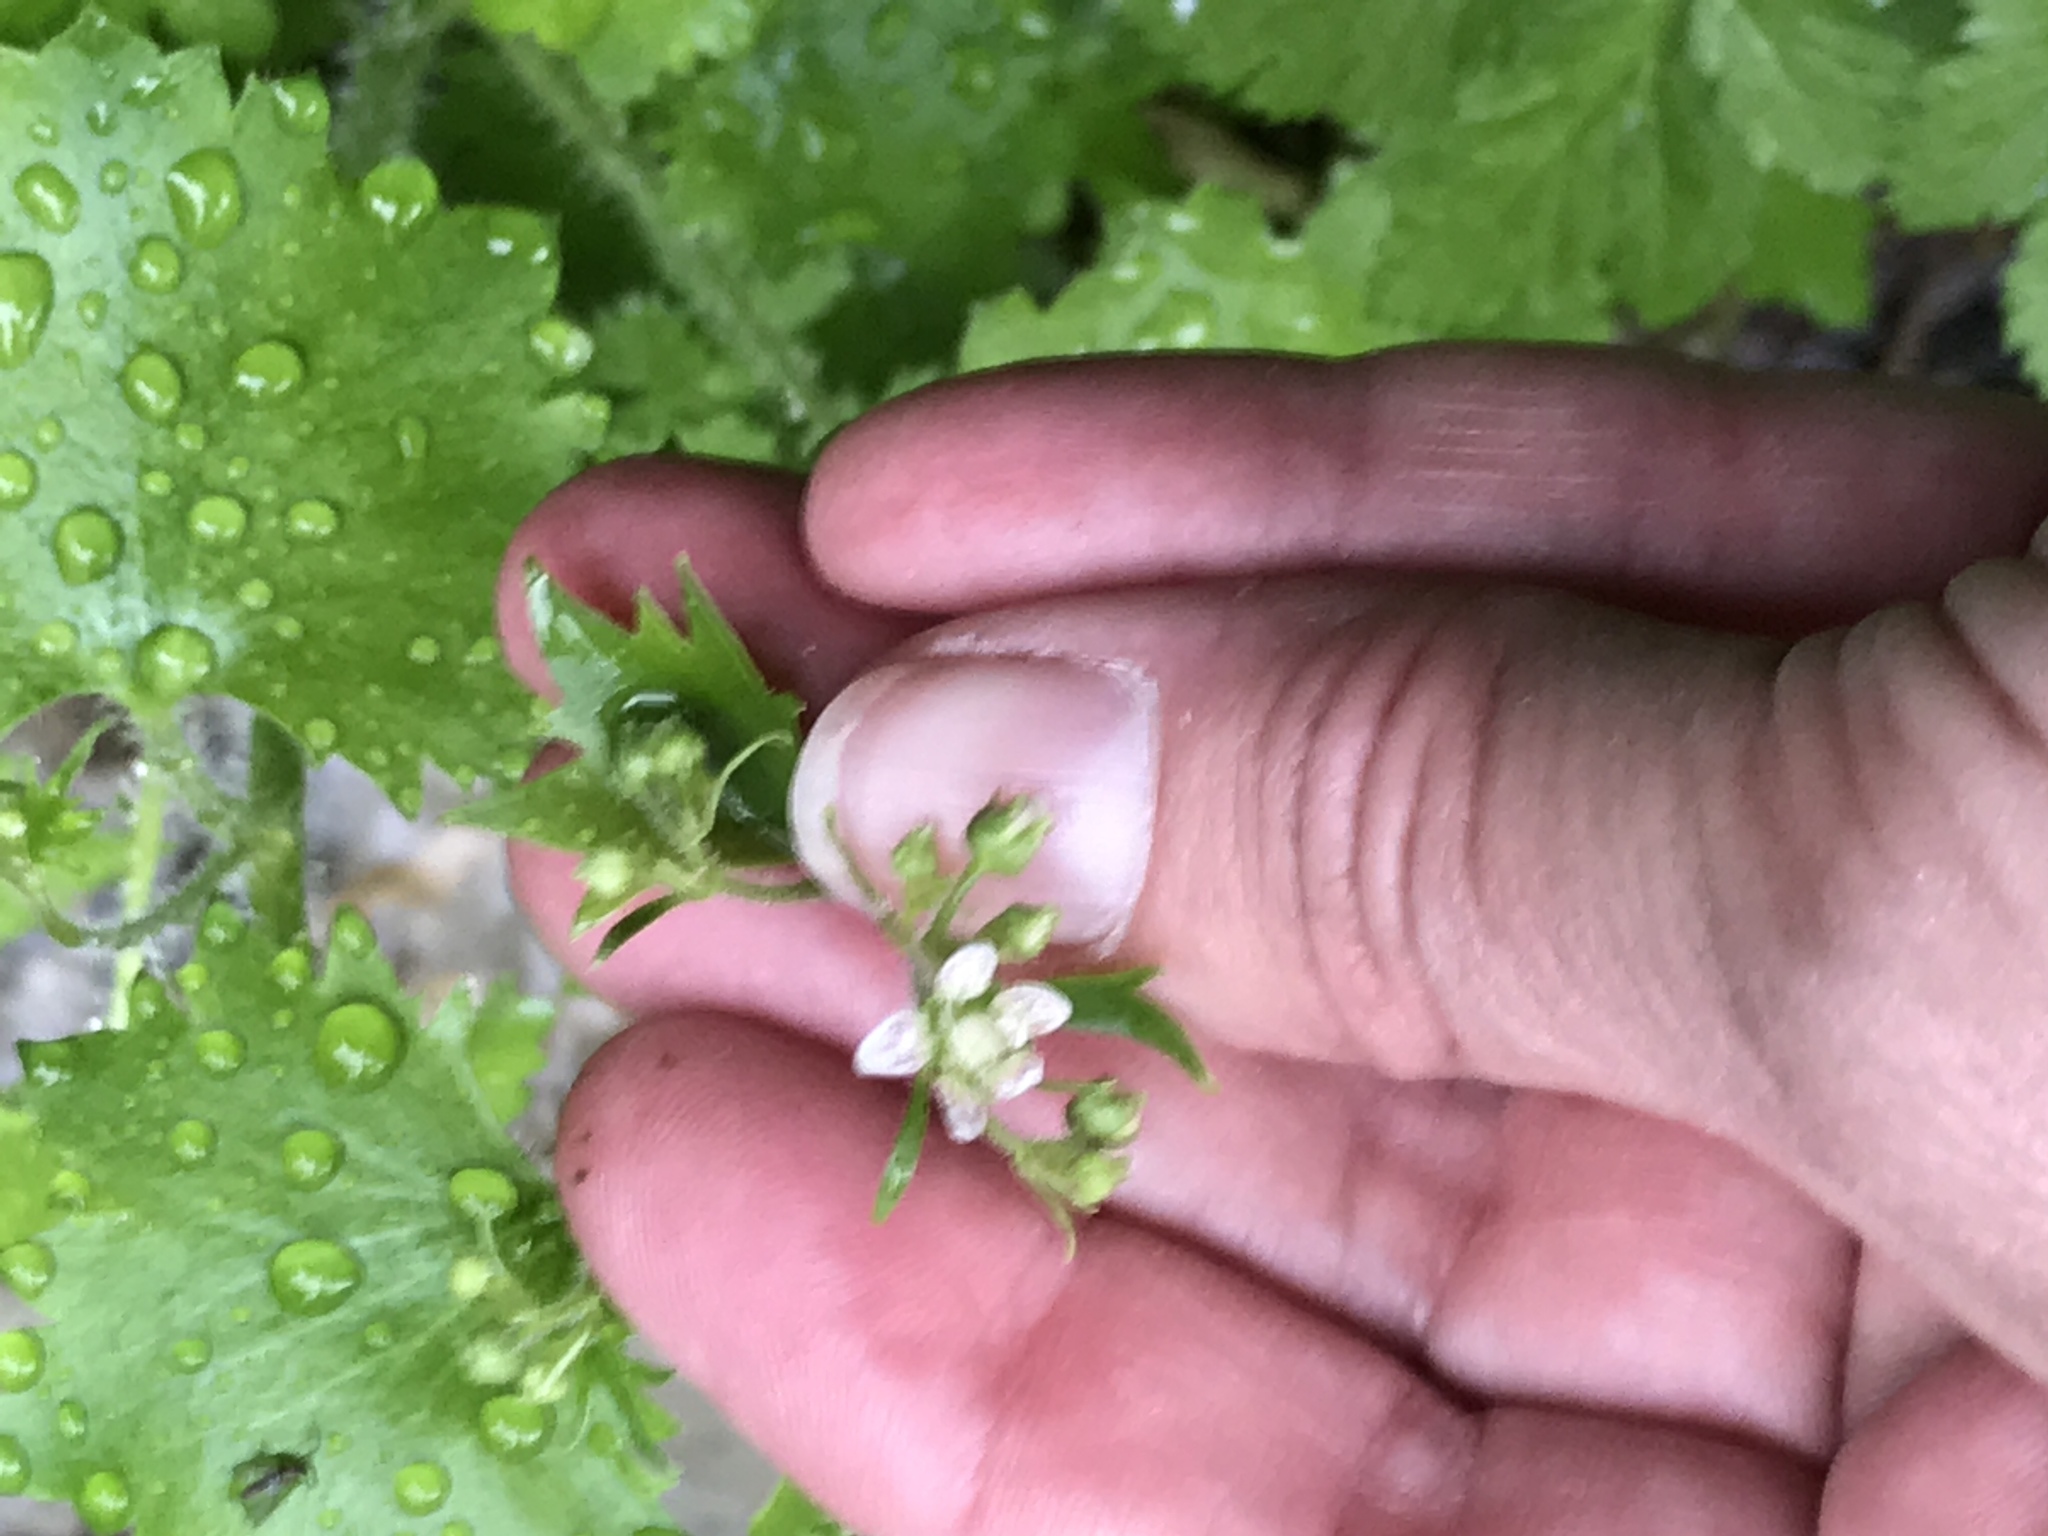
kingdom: Plantae
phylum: Tracheophyta
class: Magnoliopsida
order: Saxifragales
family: Saxifragaceae
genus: Saxifraga
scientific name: Saxifraga rotundifolia
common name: Round-leaved saxifrage
